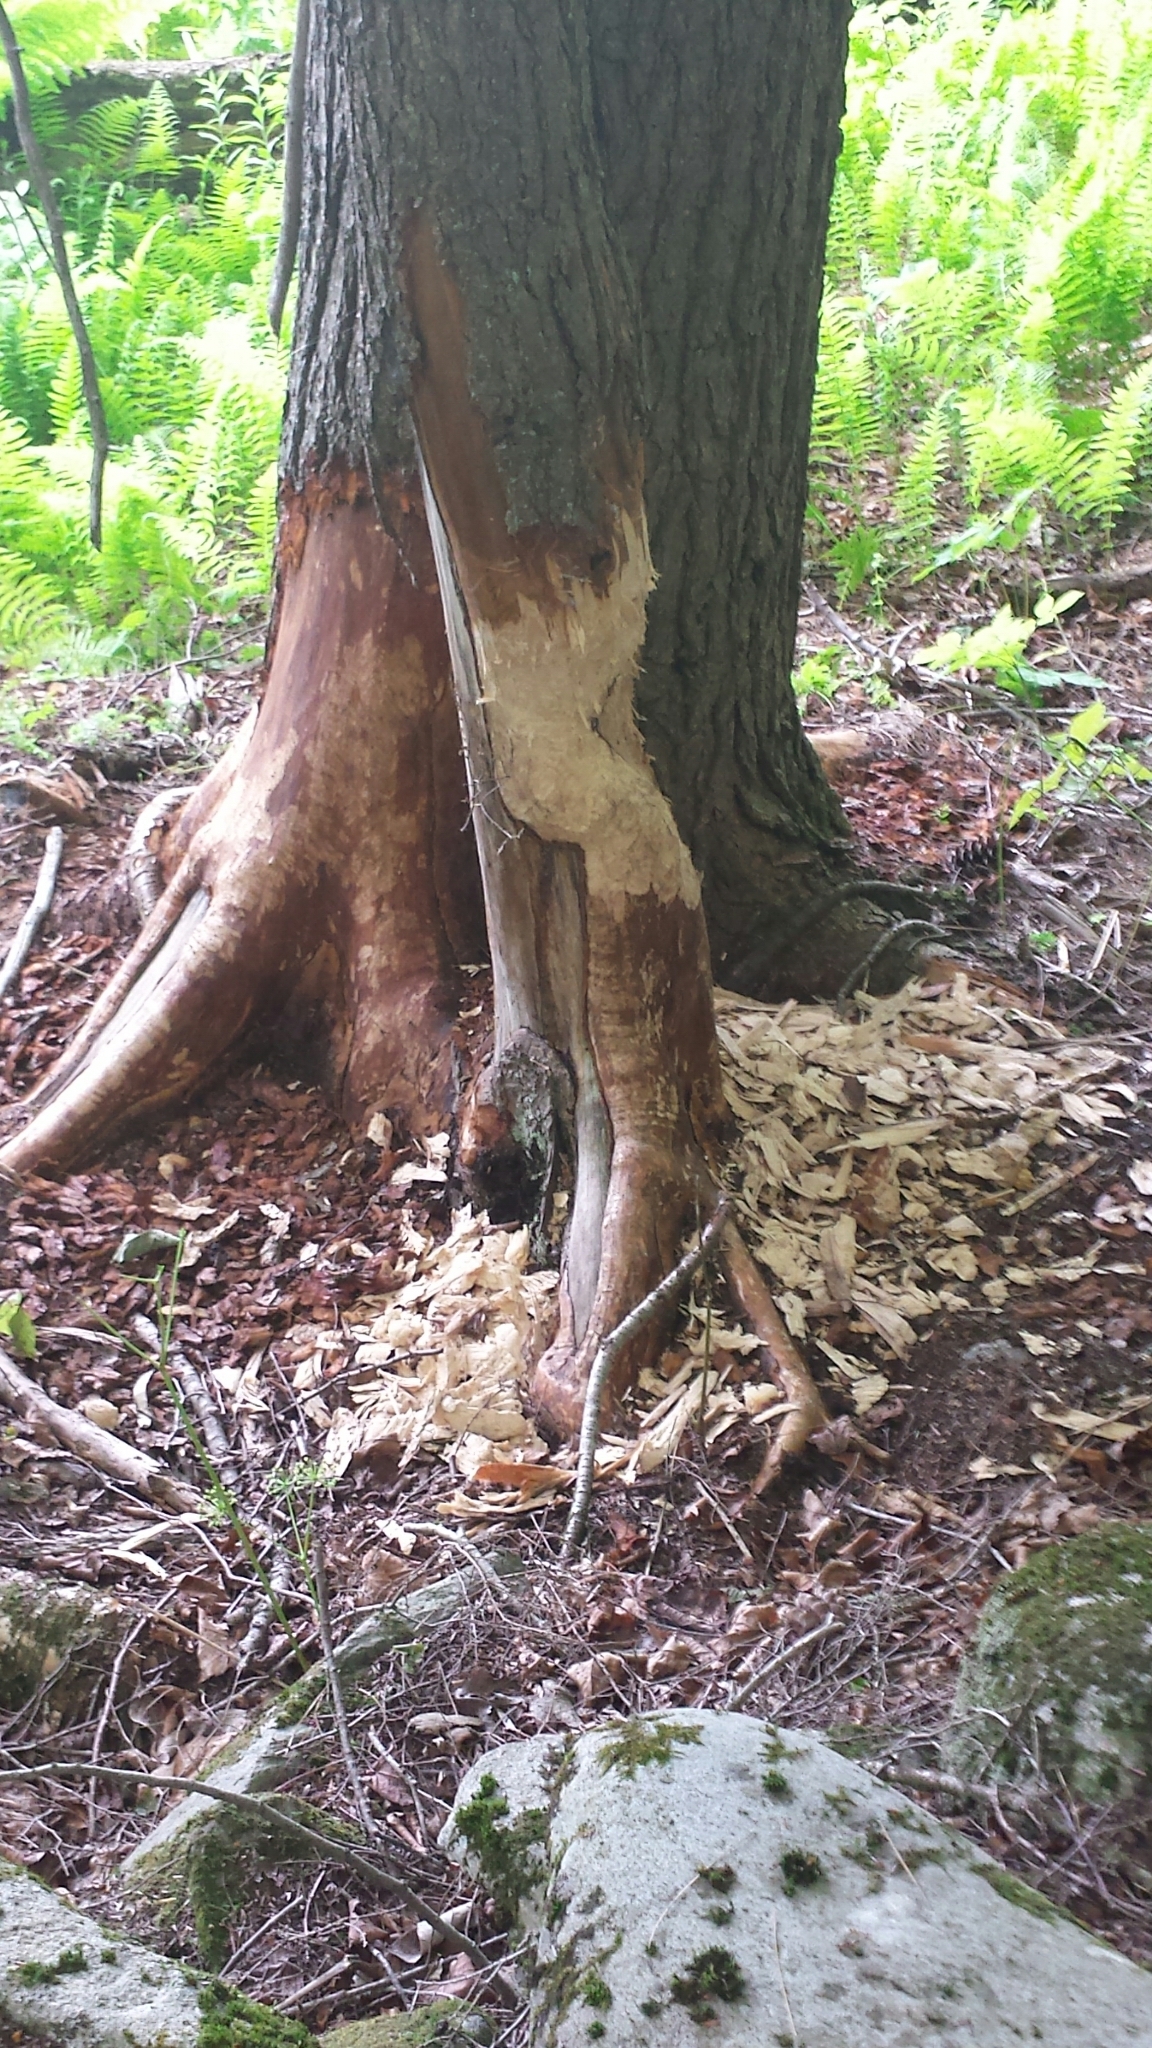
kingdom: Animalia
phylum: Chordata
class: Mammalia
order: Rodentia
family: Castoridae
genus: Castor
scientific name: Castor canadensis
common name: American beaver
